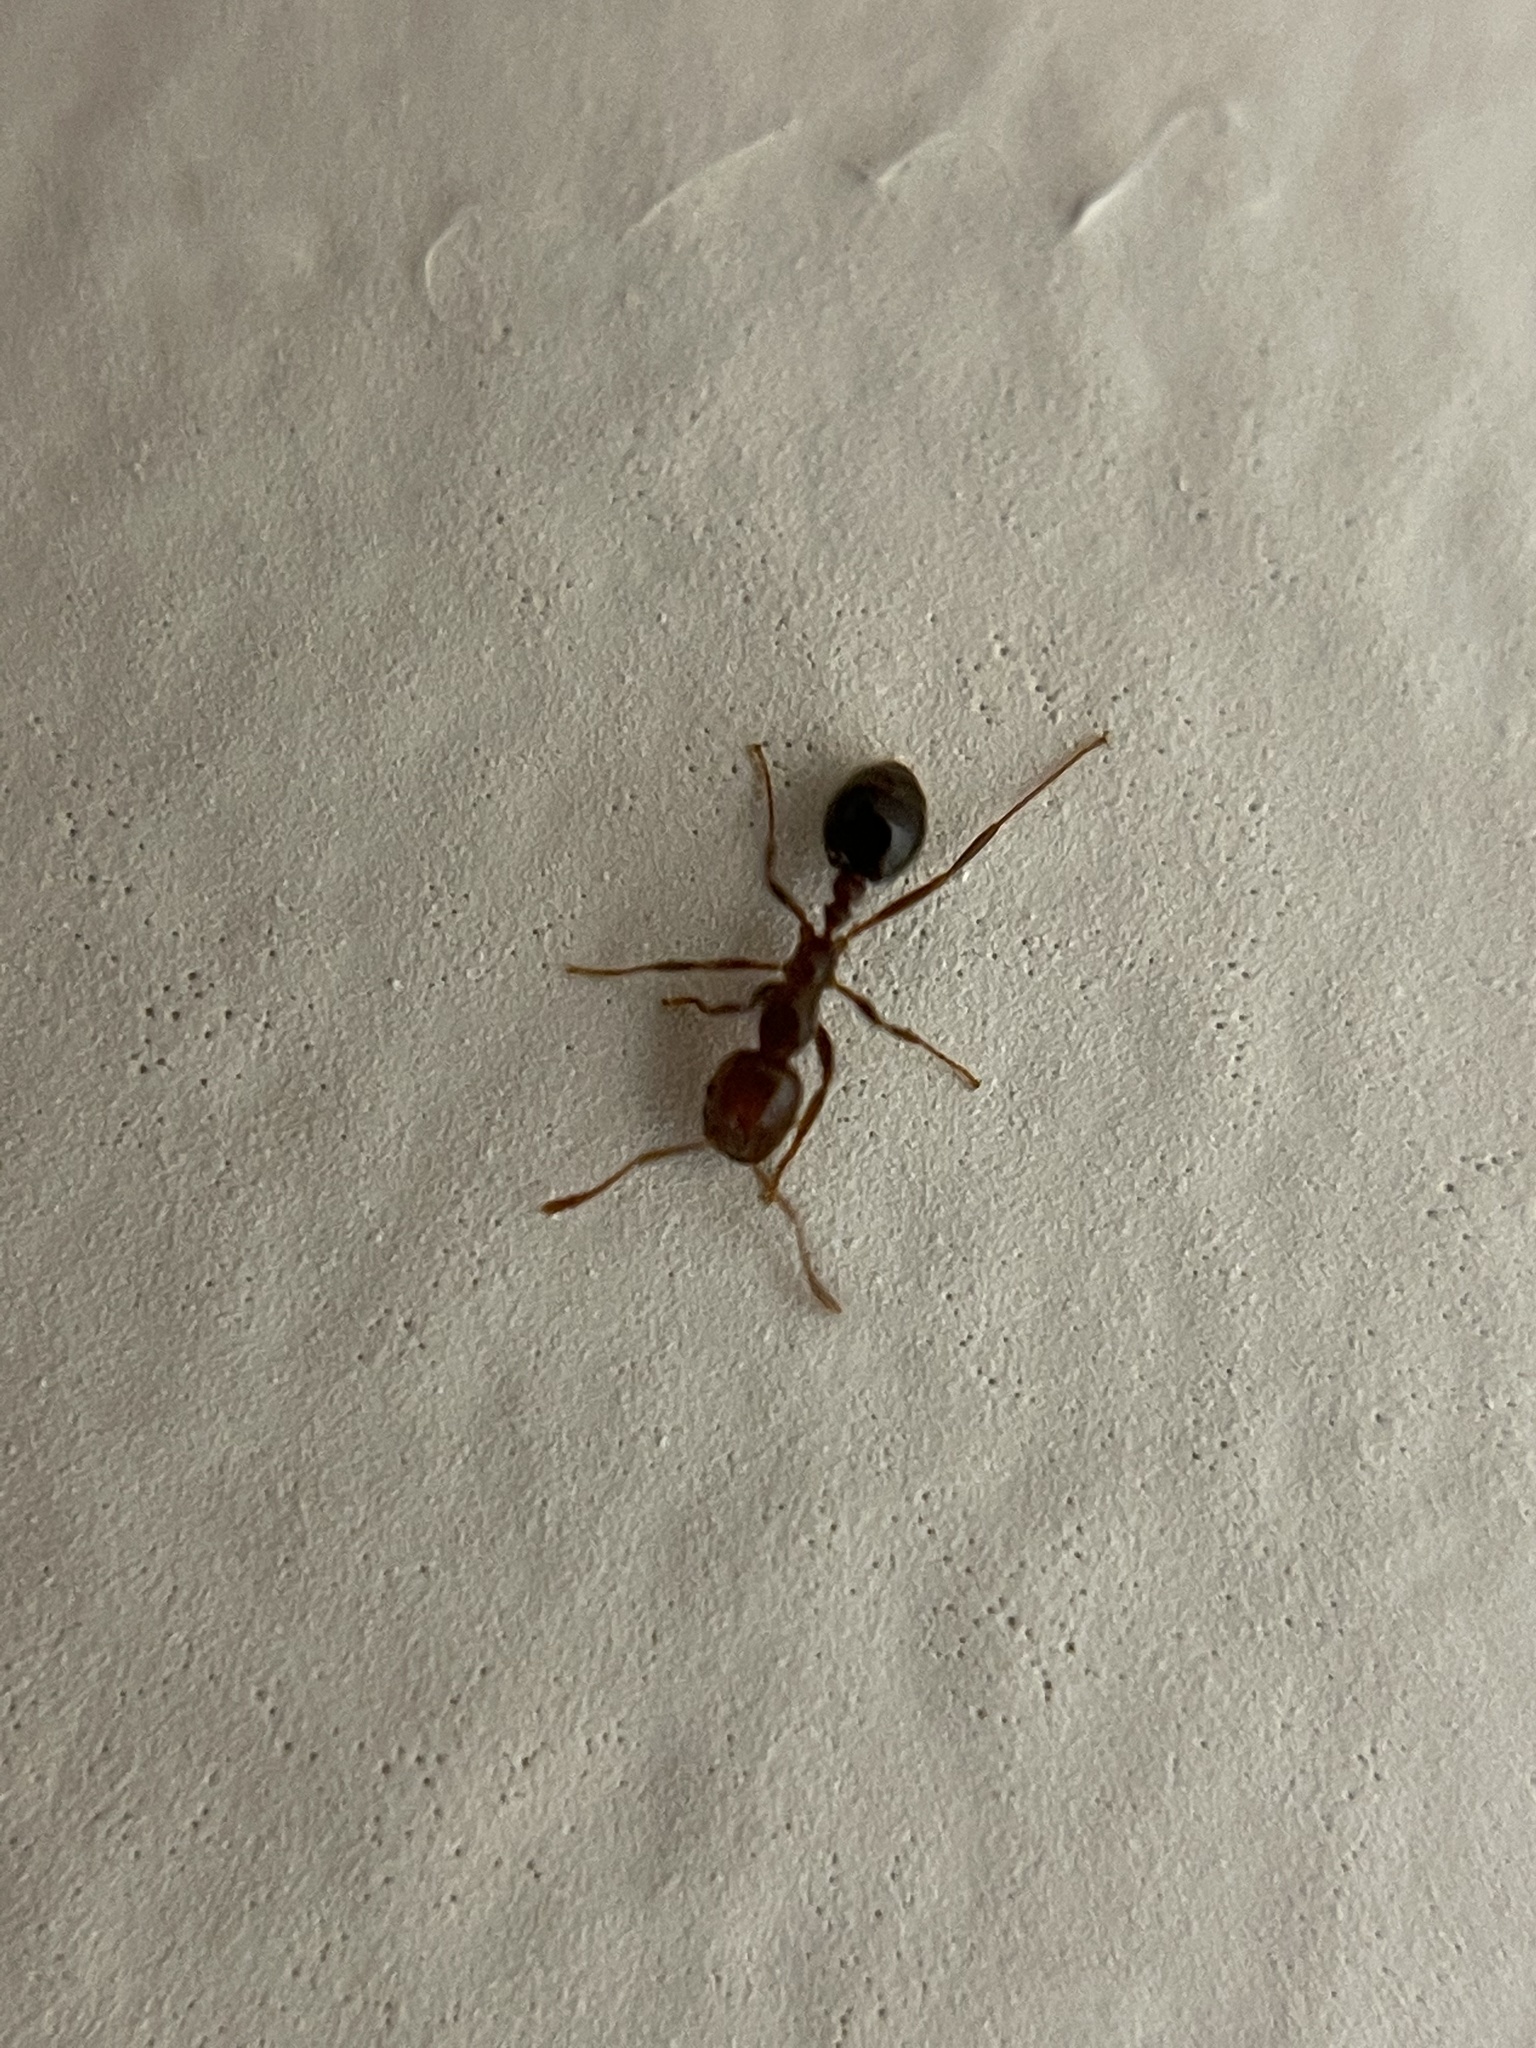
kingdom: Animalia
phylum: Arthropoda
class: Insecta
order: Hymenoptera
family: Formicidae
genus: Solenopsis
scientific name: Solenopsis invicta
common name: Red imported fire ant
